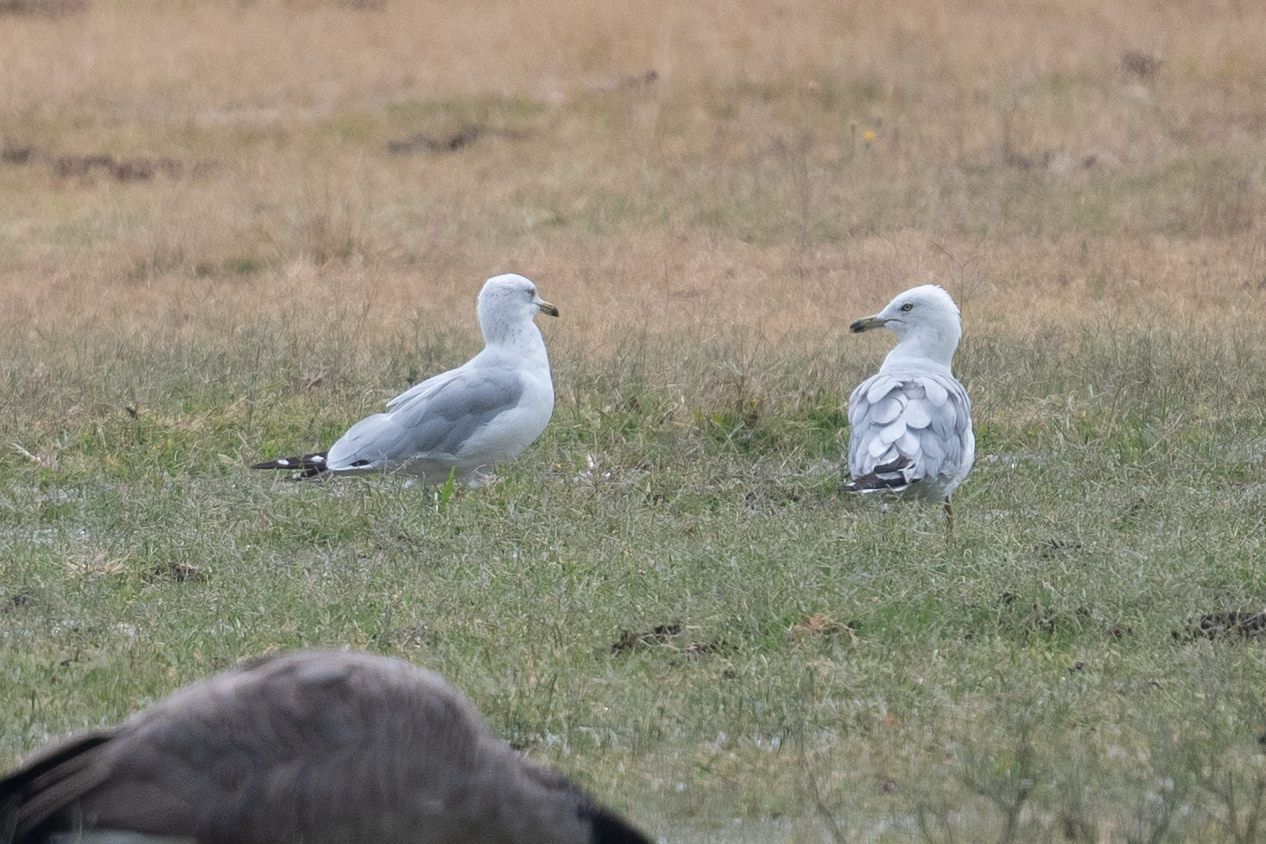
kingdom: Animalia
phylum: Chordata
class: Aves
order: Charadriiformes
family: Laridae
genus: Larus
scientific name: Larus delawarensis
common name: Ring-billed gull
